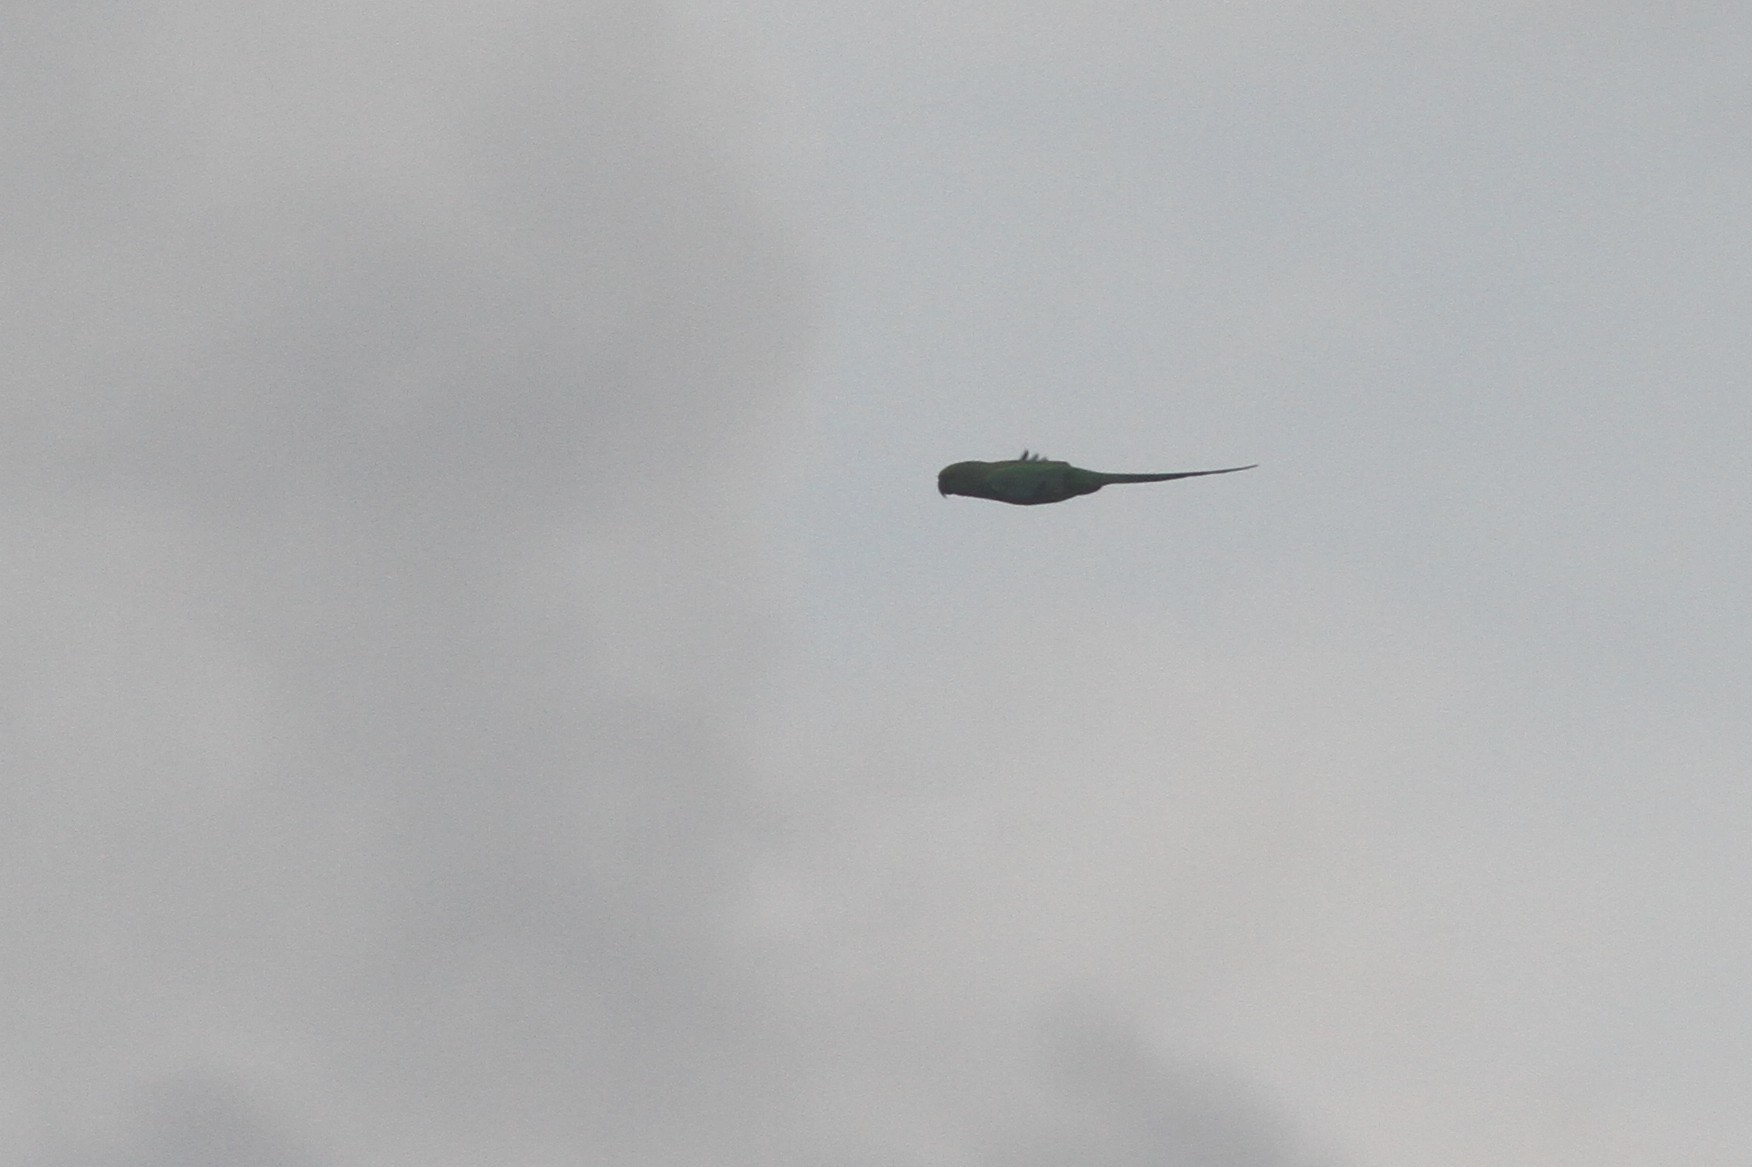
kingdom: Animalia
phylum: Chordata
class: Aves
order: Psittaciformes
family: Psittacidae
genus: Psittacula
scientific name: Psittacula krameri
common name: Rose-ringed parakeet
